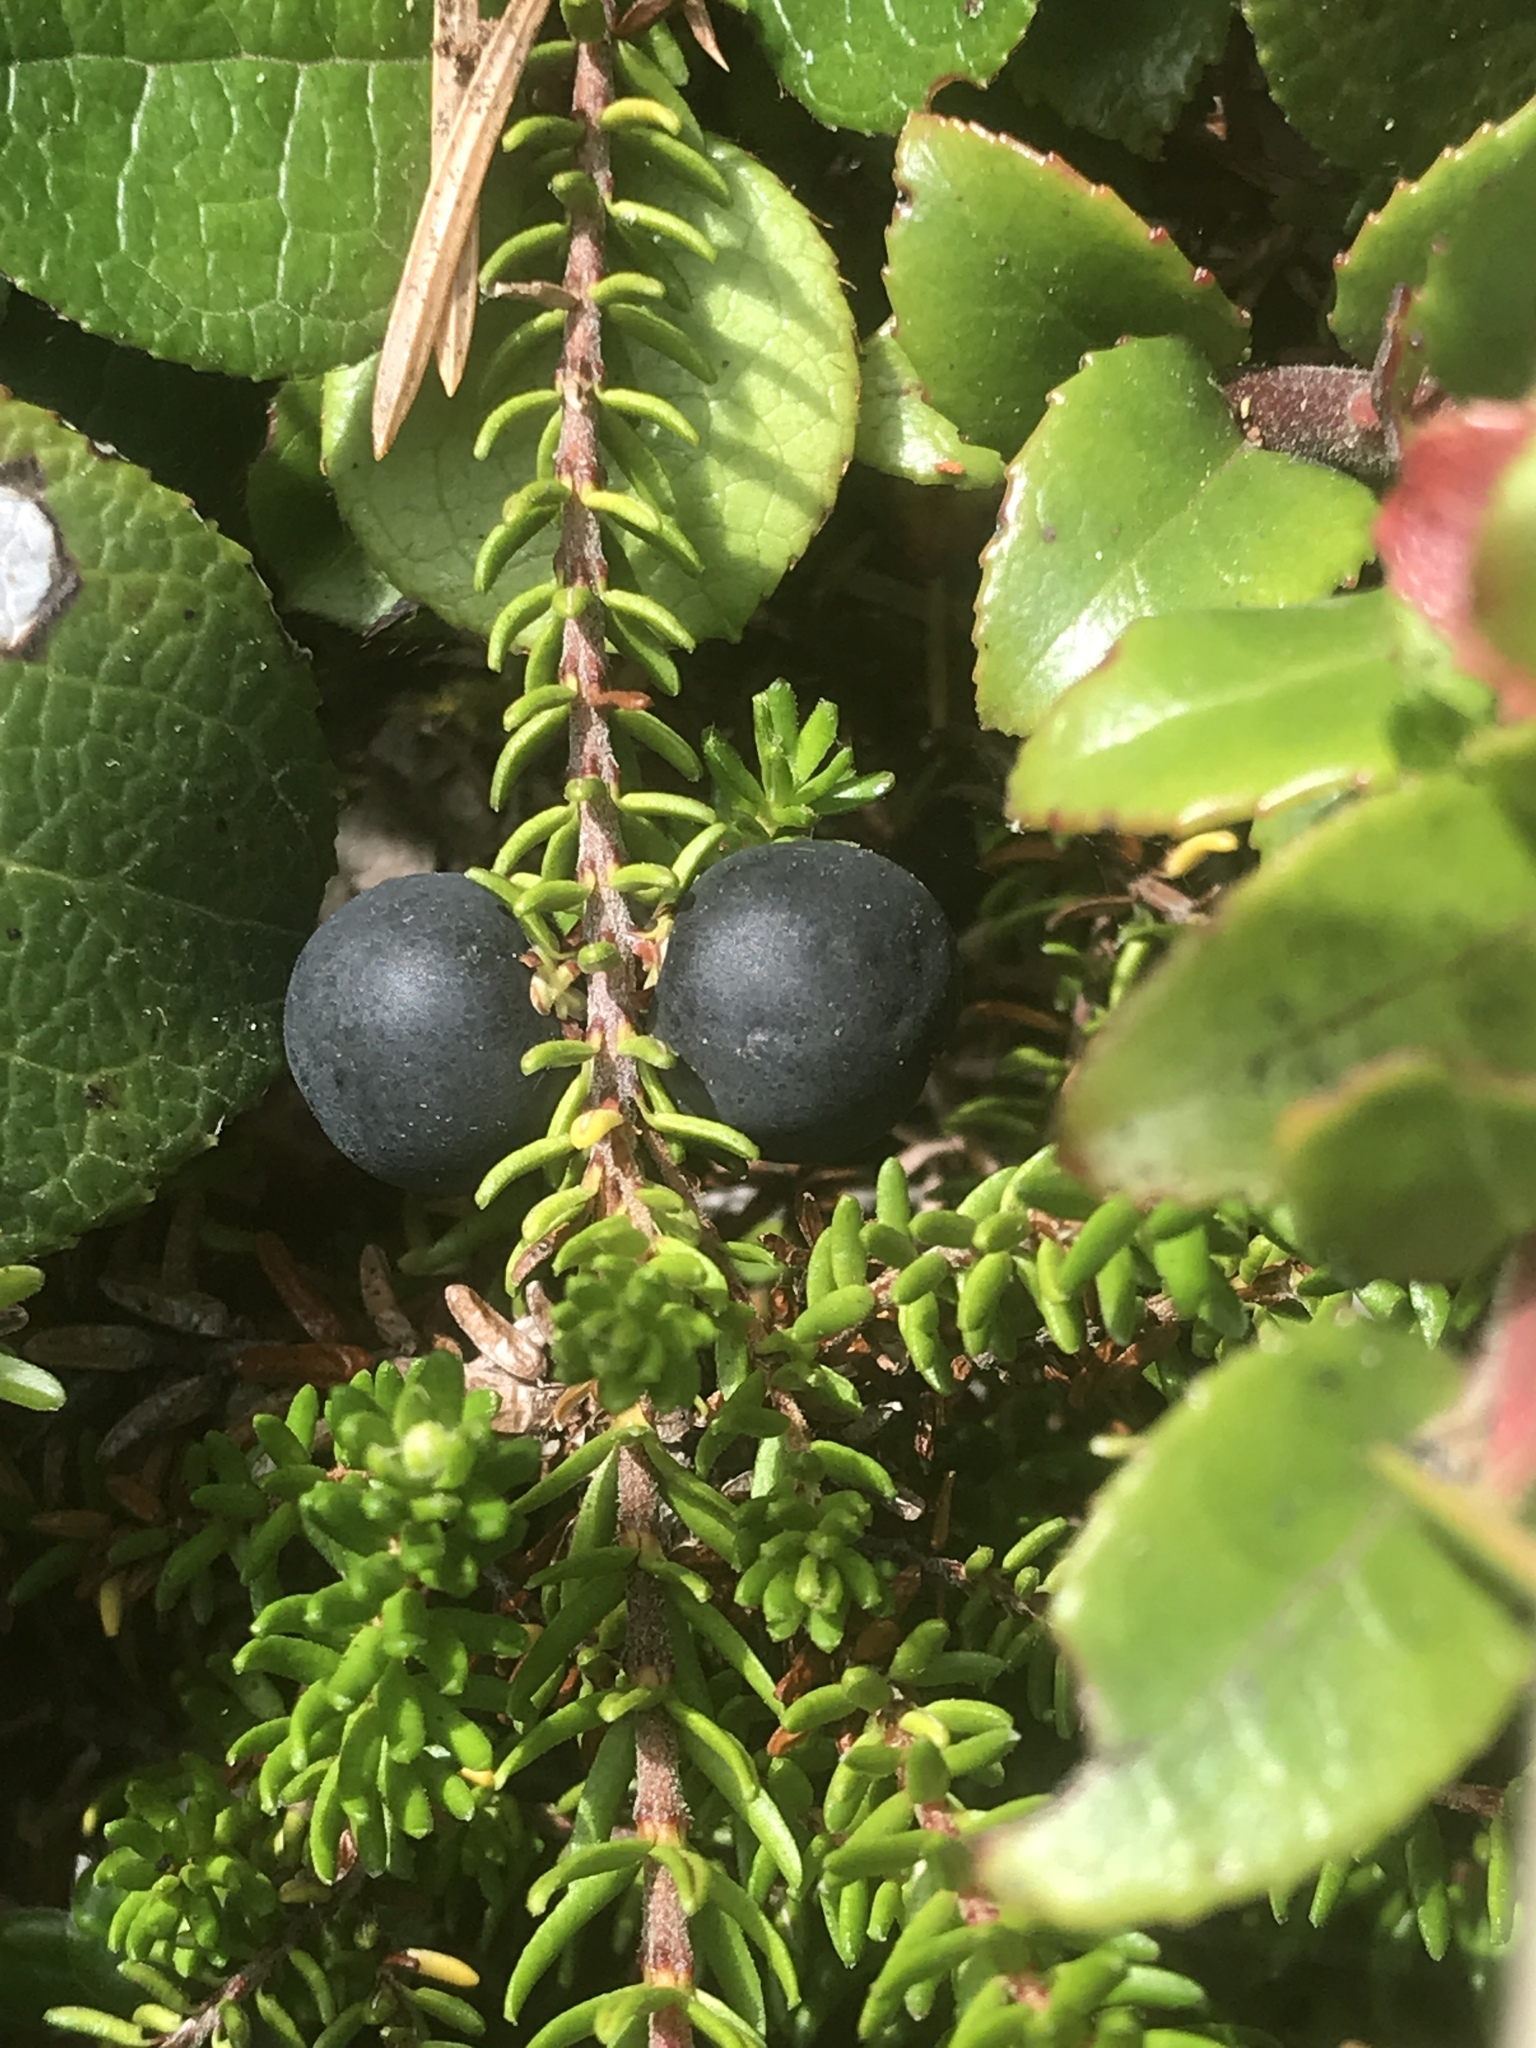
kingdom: Plantae
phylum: Tracheophyta
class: Magnoliopsida
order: Ericales
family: Ericaceae
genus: Empetrum
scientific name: Empetrum nigrum
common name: Black crowberry
